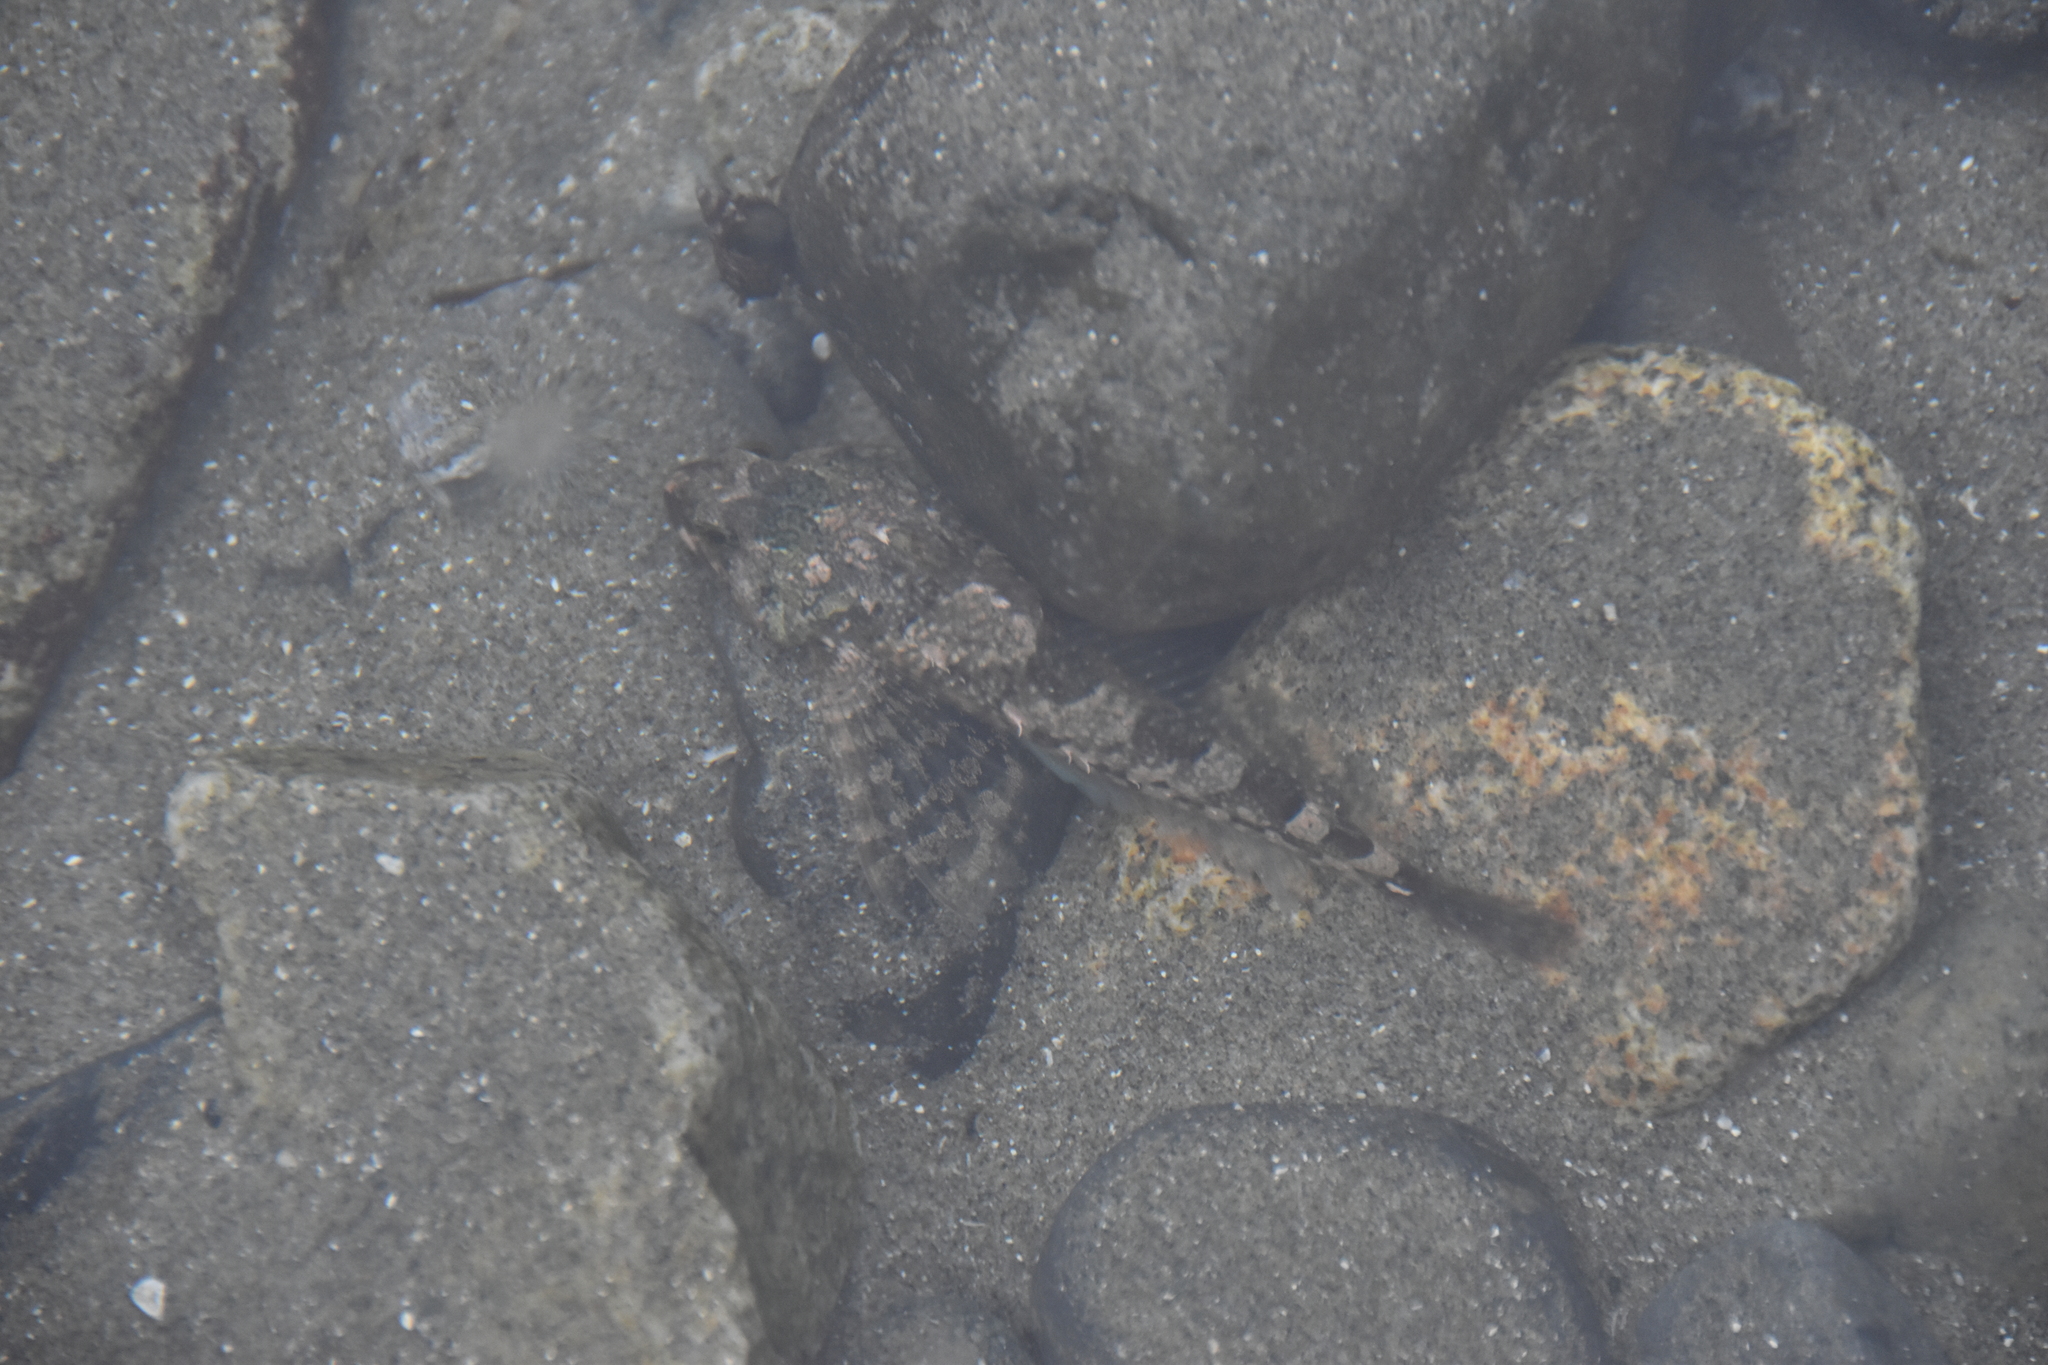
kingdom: Animalia
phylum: Chordata
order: Scorpaeniformes
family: Cottidae
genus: Oligocottus
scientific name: Oligocottus maculosus
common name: Tidepool sculpin
